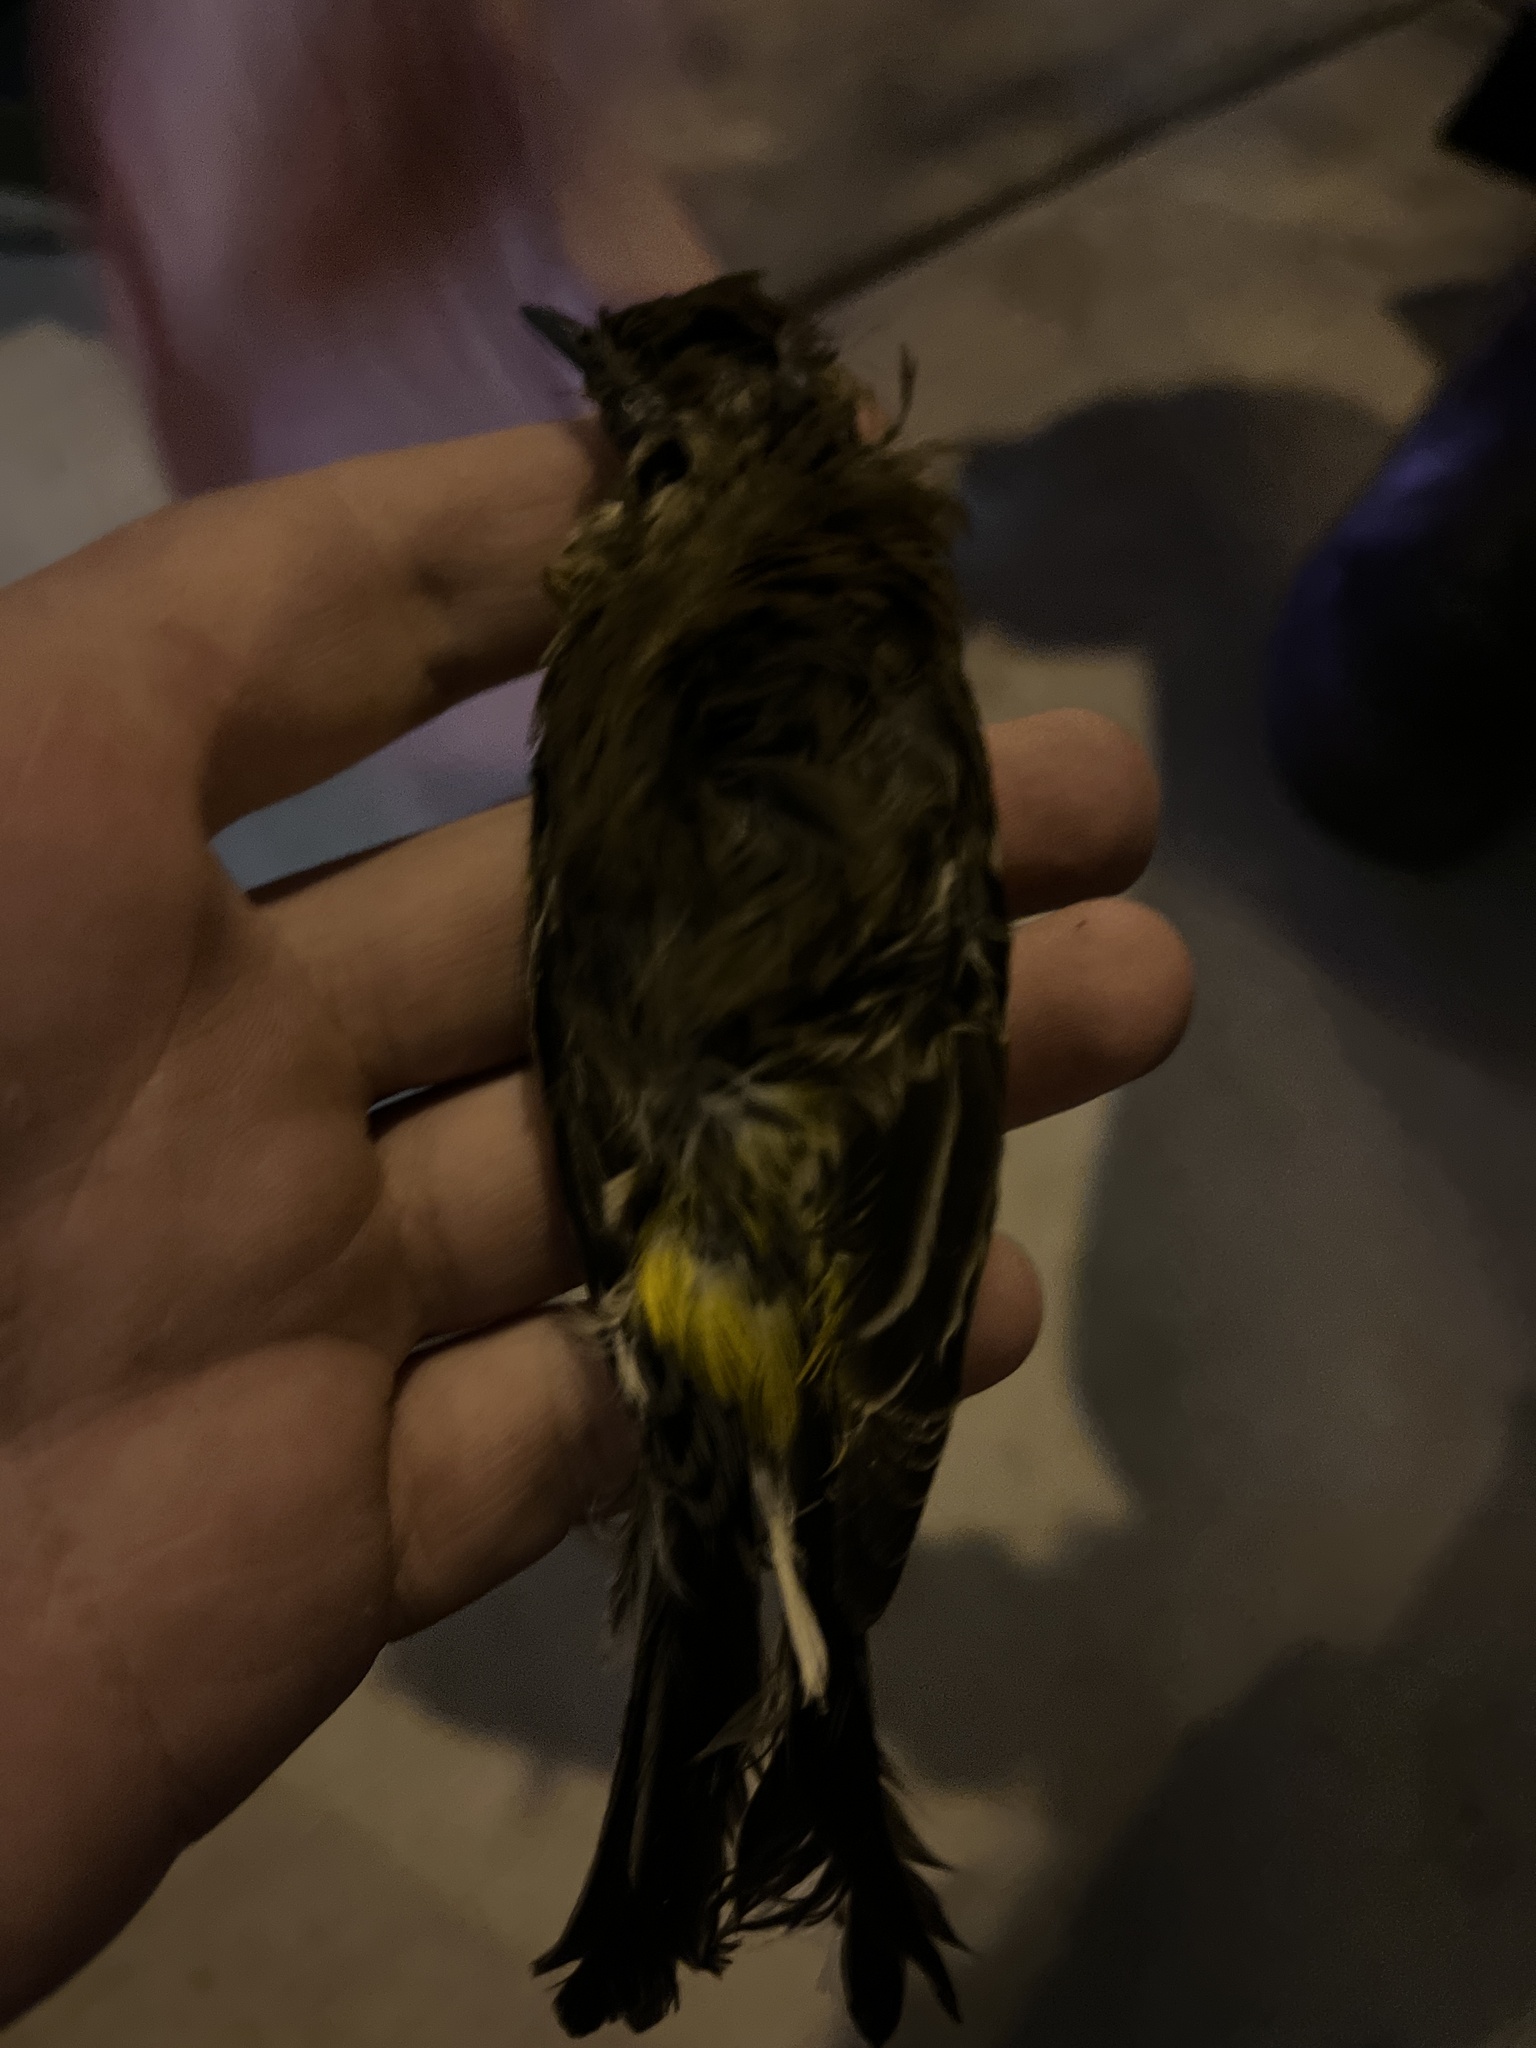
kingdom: Animalia
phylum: Chordata
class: Aves
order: Passeriformes
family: Parulidae
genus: Setophaga
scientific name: Setophaga coronata
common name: Myrtle warbler
